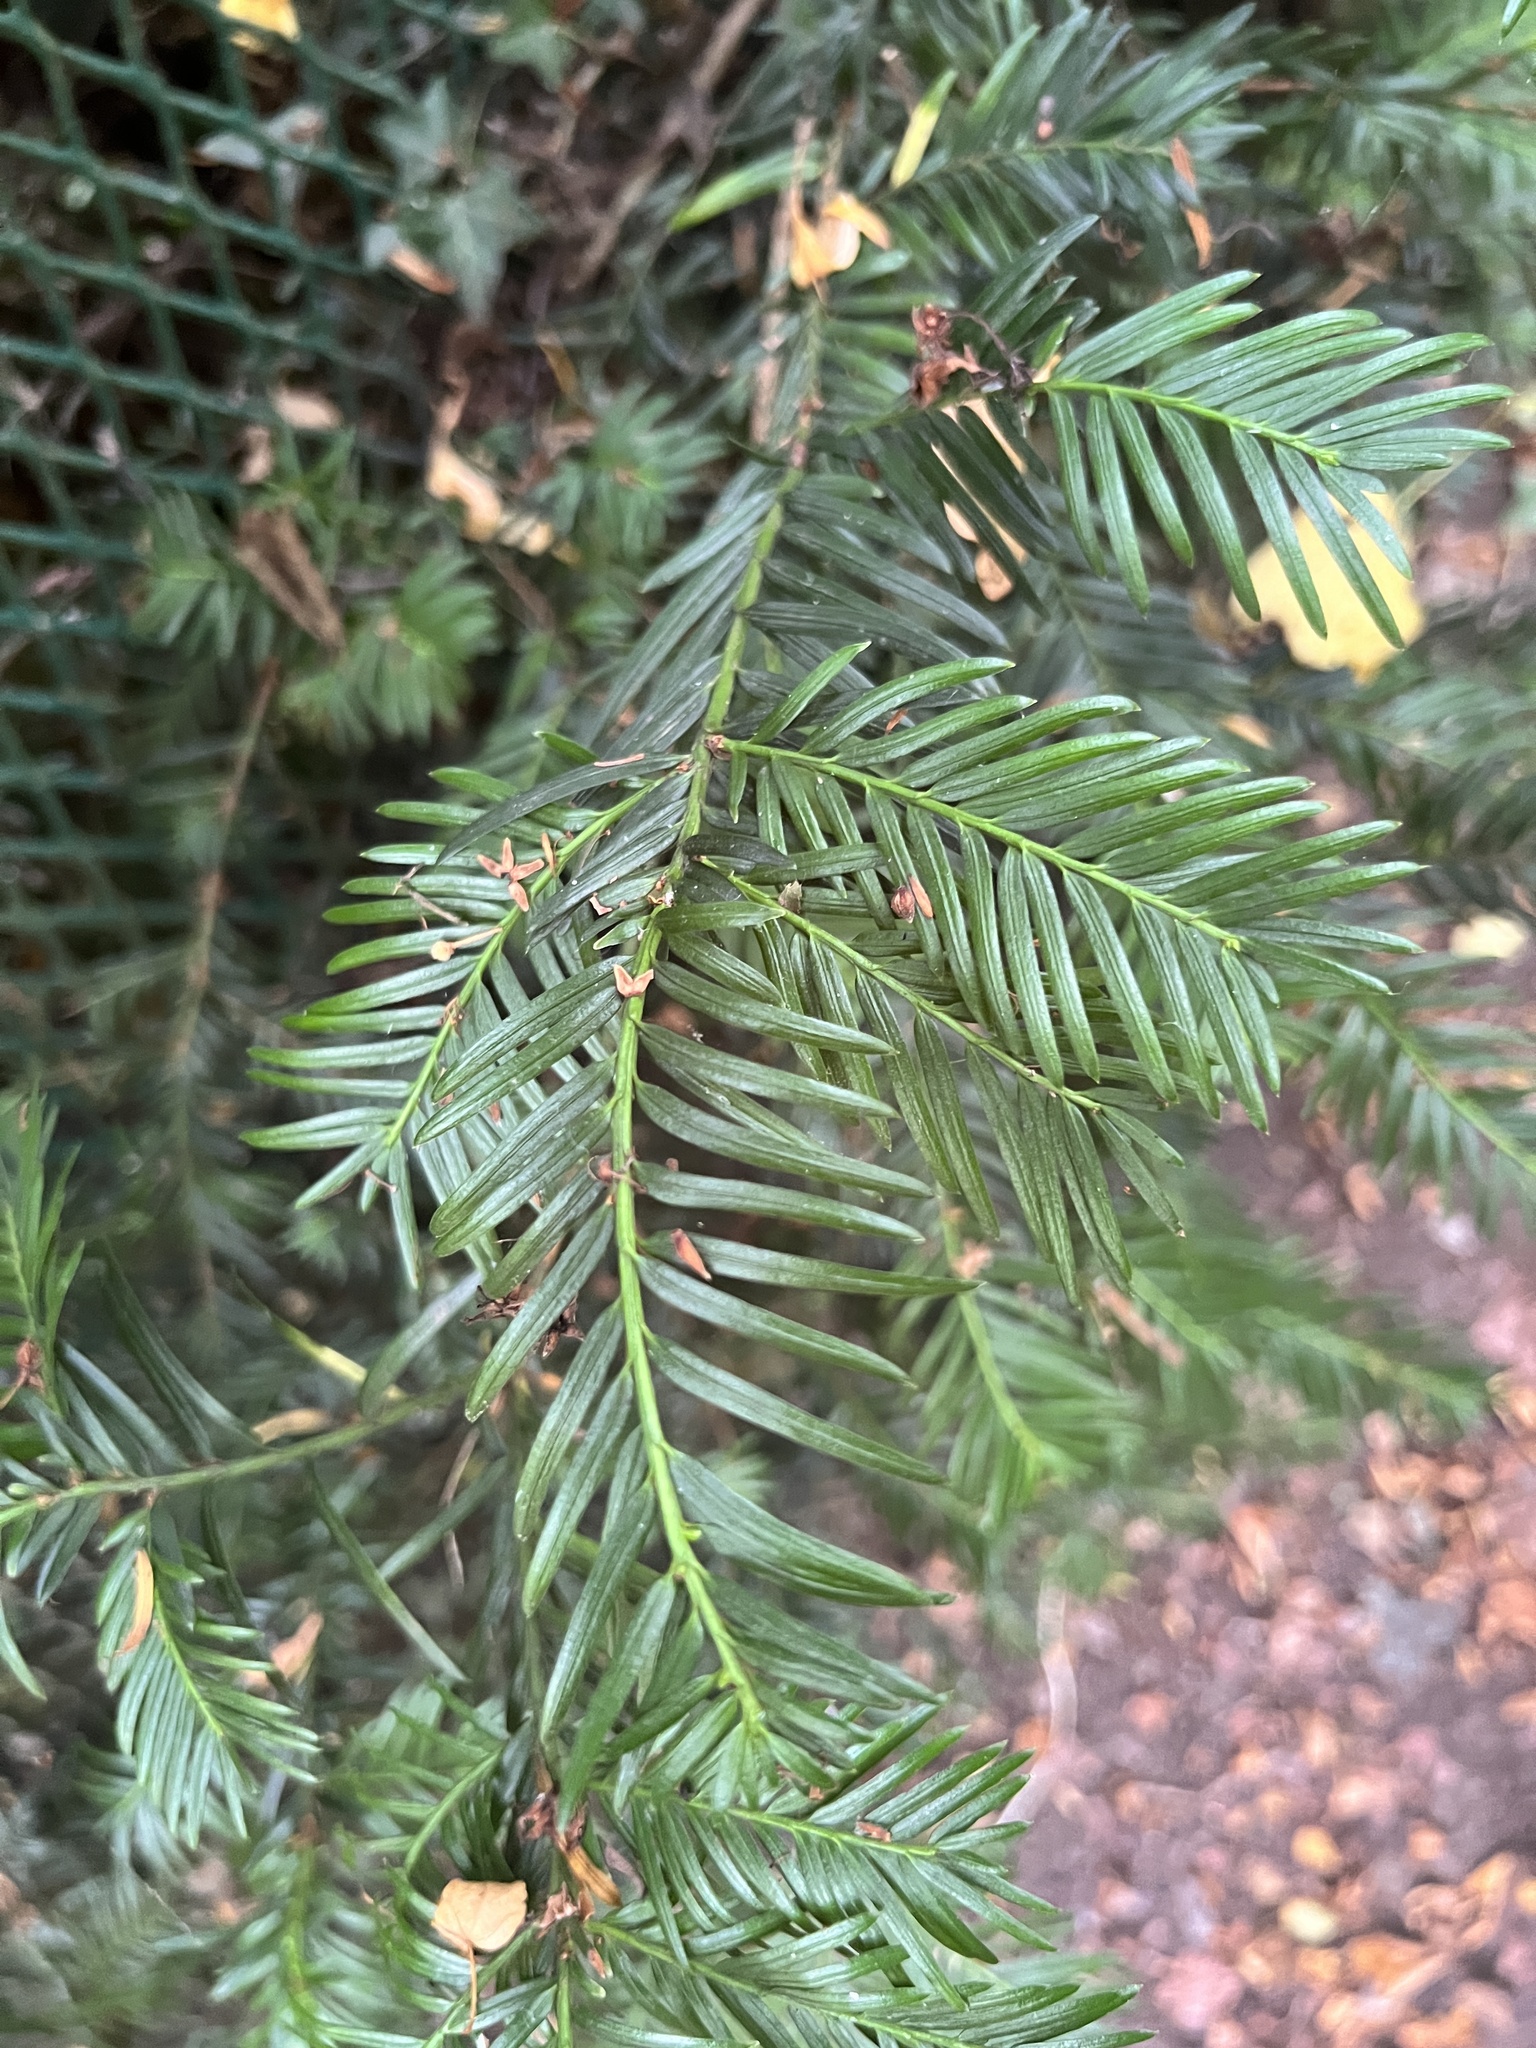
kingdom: Plantae
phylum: Tracheophyta
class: Pinopsida
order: Pinales
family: Taxaceae
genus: Taxus
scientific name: Taxus baccata
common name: Yew
